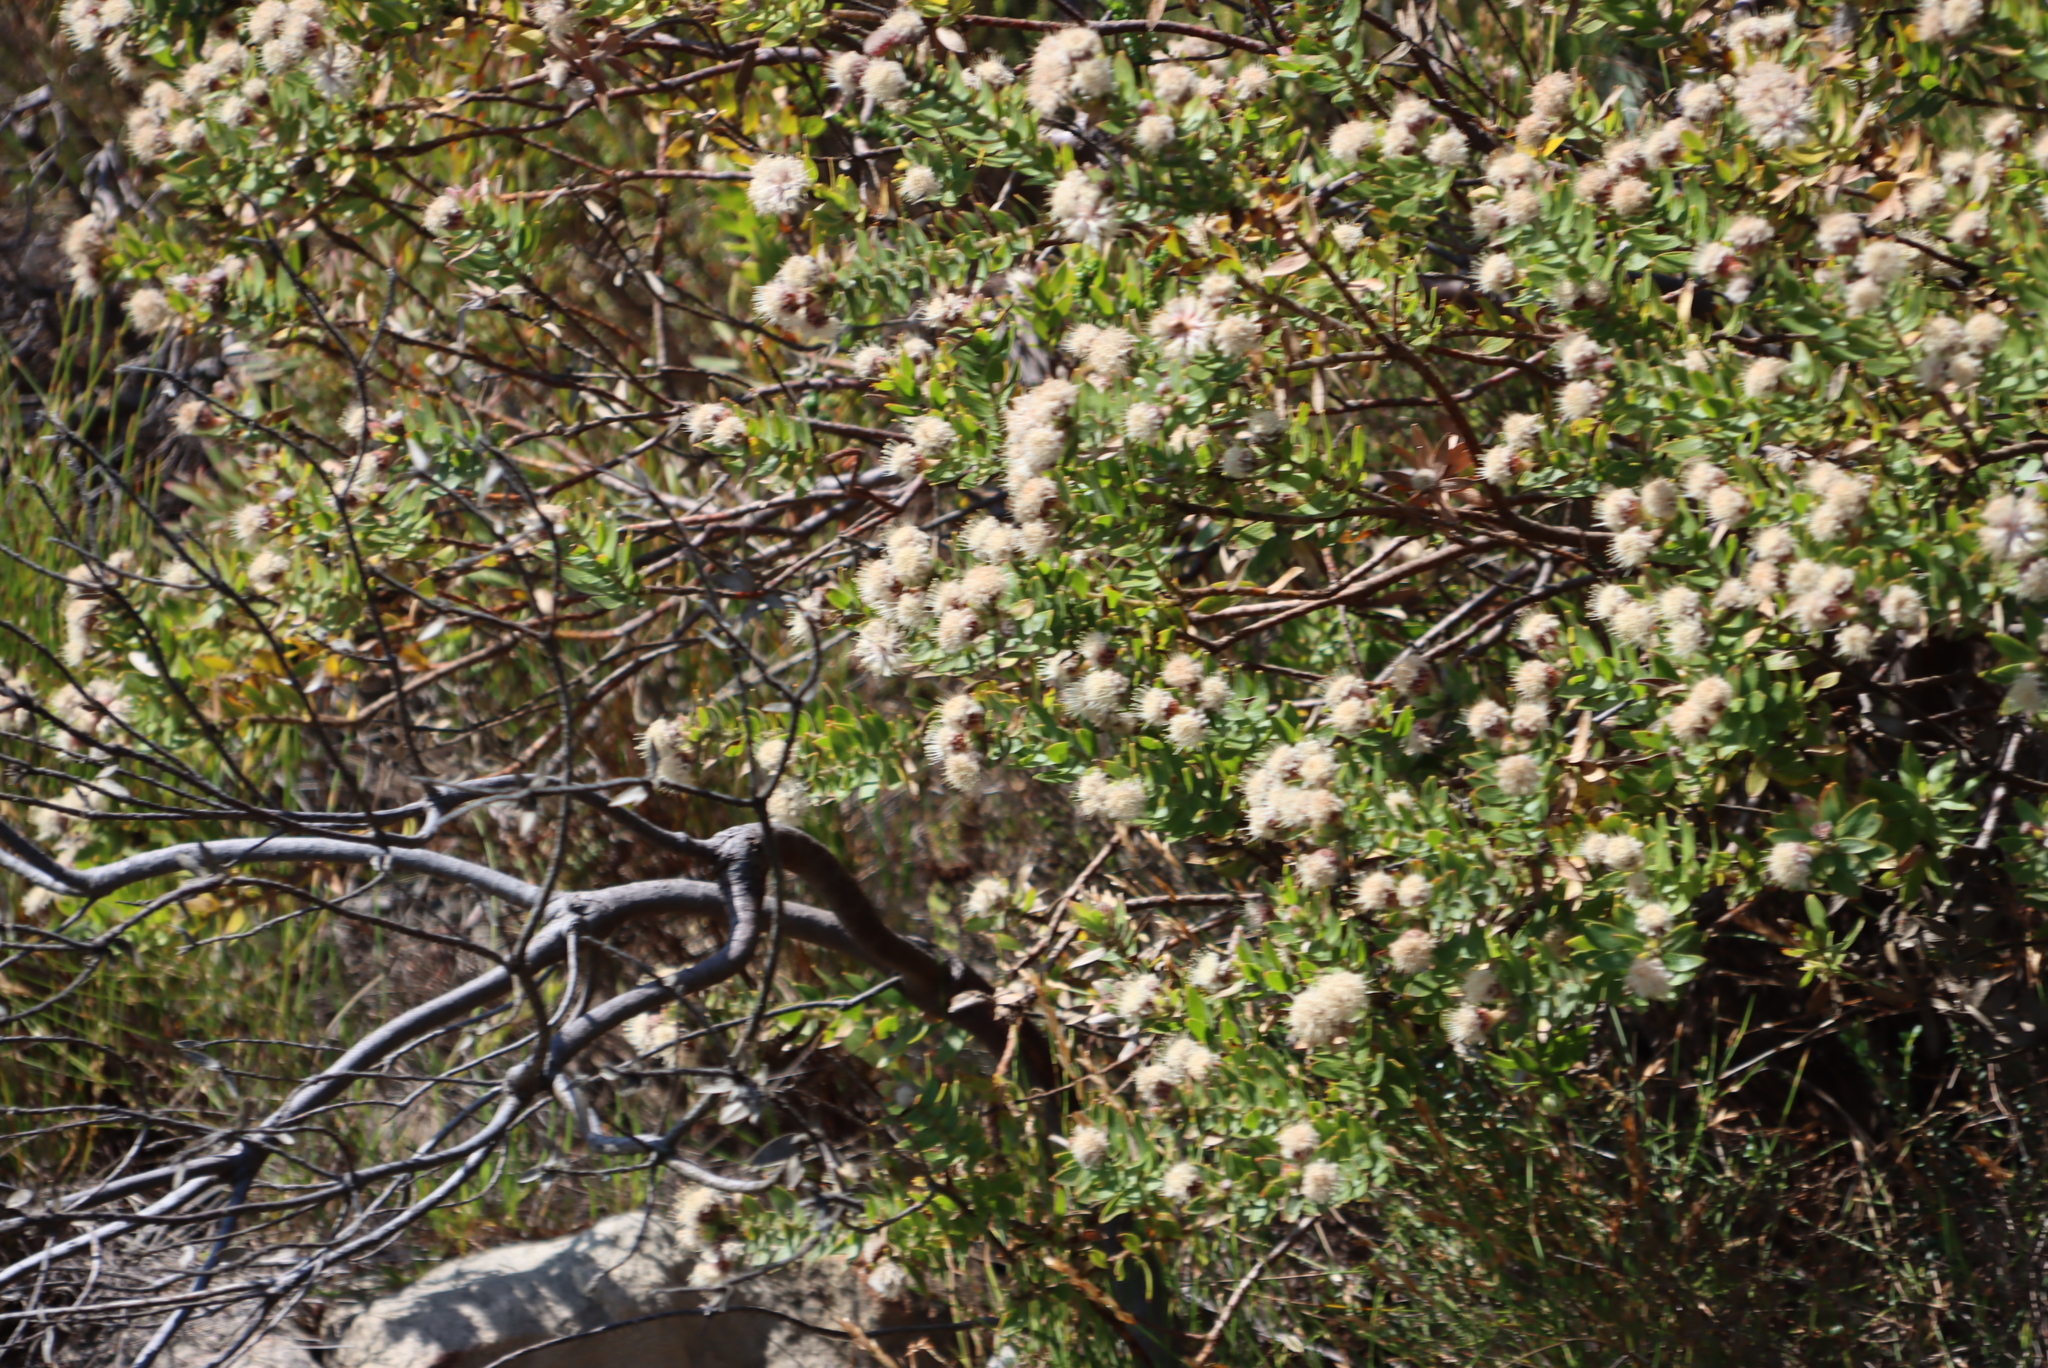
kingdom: Plantae
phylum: Tracheophyta
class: Magnoliopsida
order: Proteales
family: Proteaceae
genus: Leucospermum
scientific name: Leucospermum bolusii
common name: Gordon's bay pincushion
